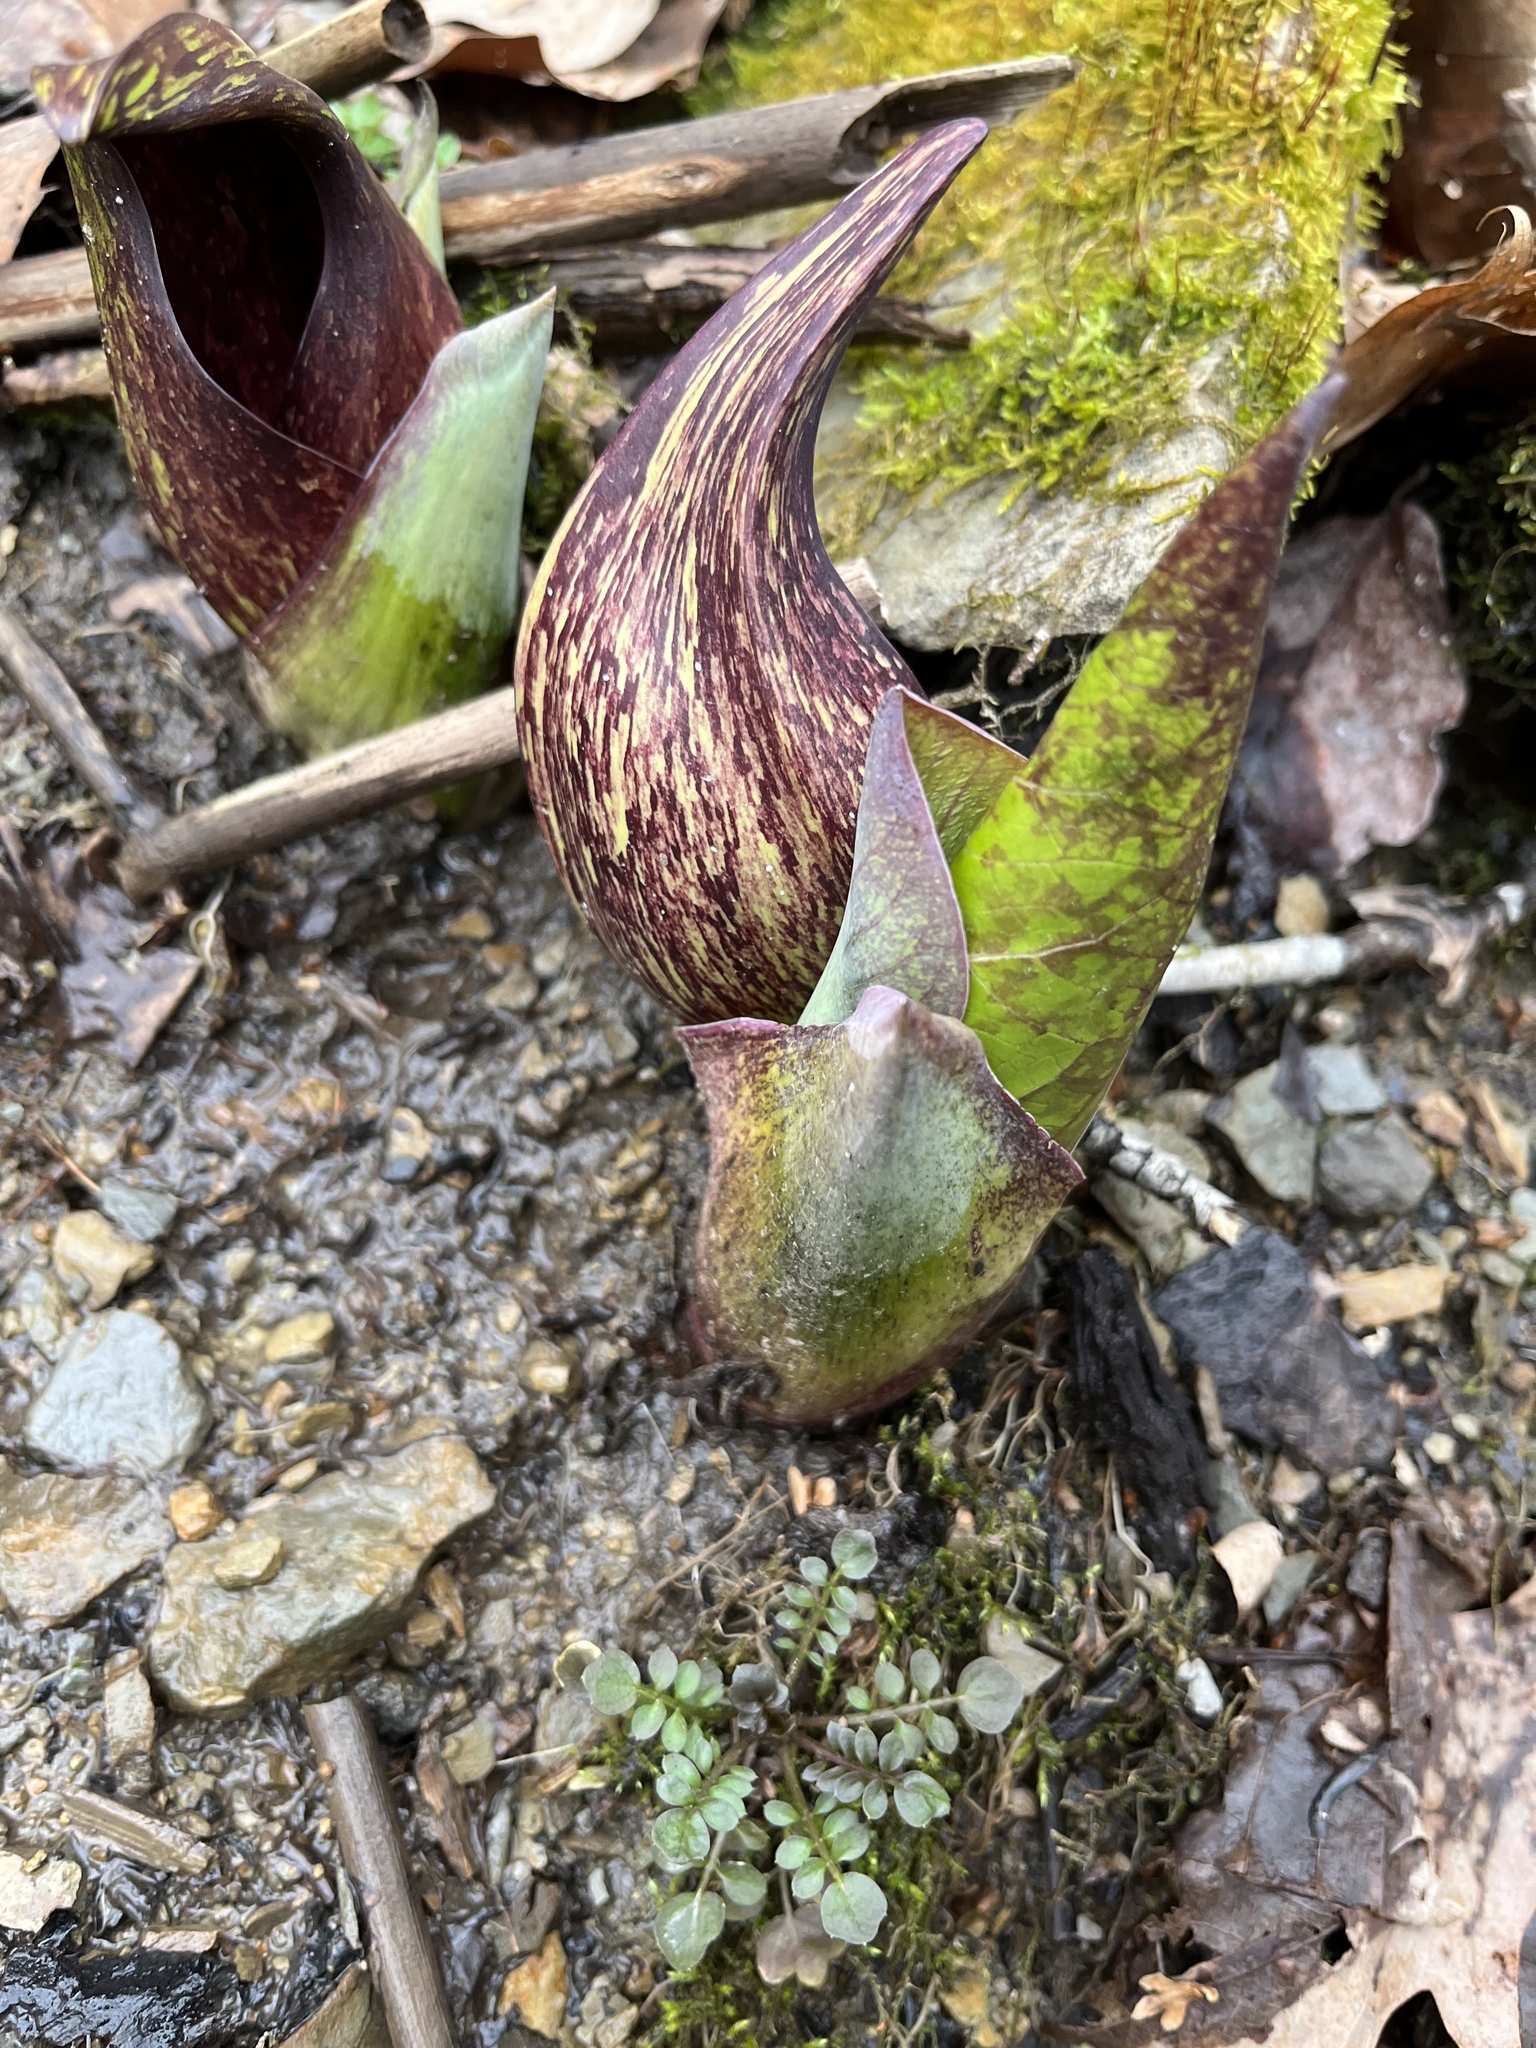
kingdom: Plantae
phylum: Tracheophyta
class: Liliopsida
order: Alismatales
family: Araceae
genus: Symplocarpus
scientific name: Symplocarpus foetidus
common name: Eastern skunk cabbage
